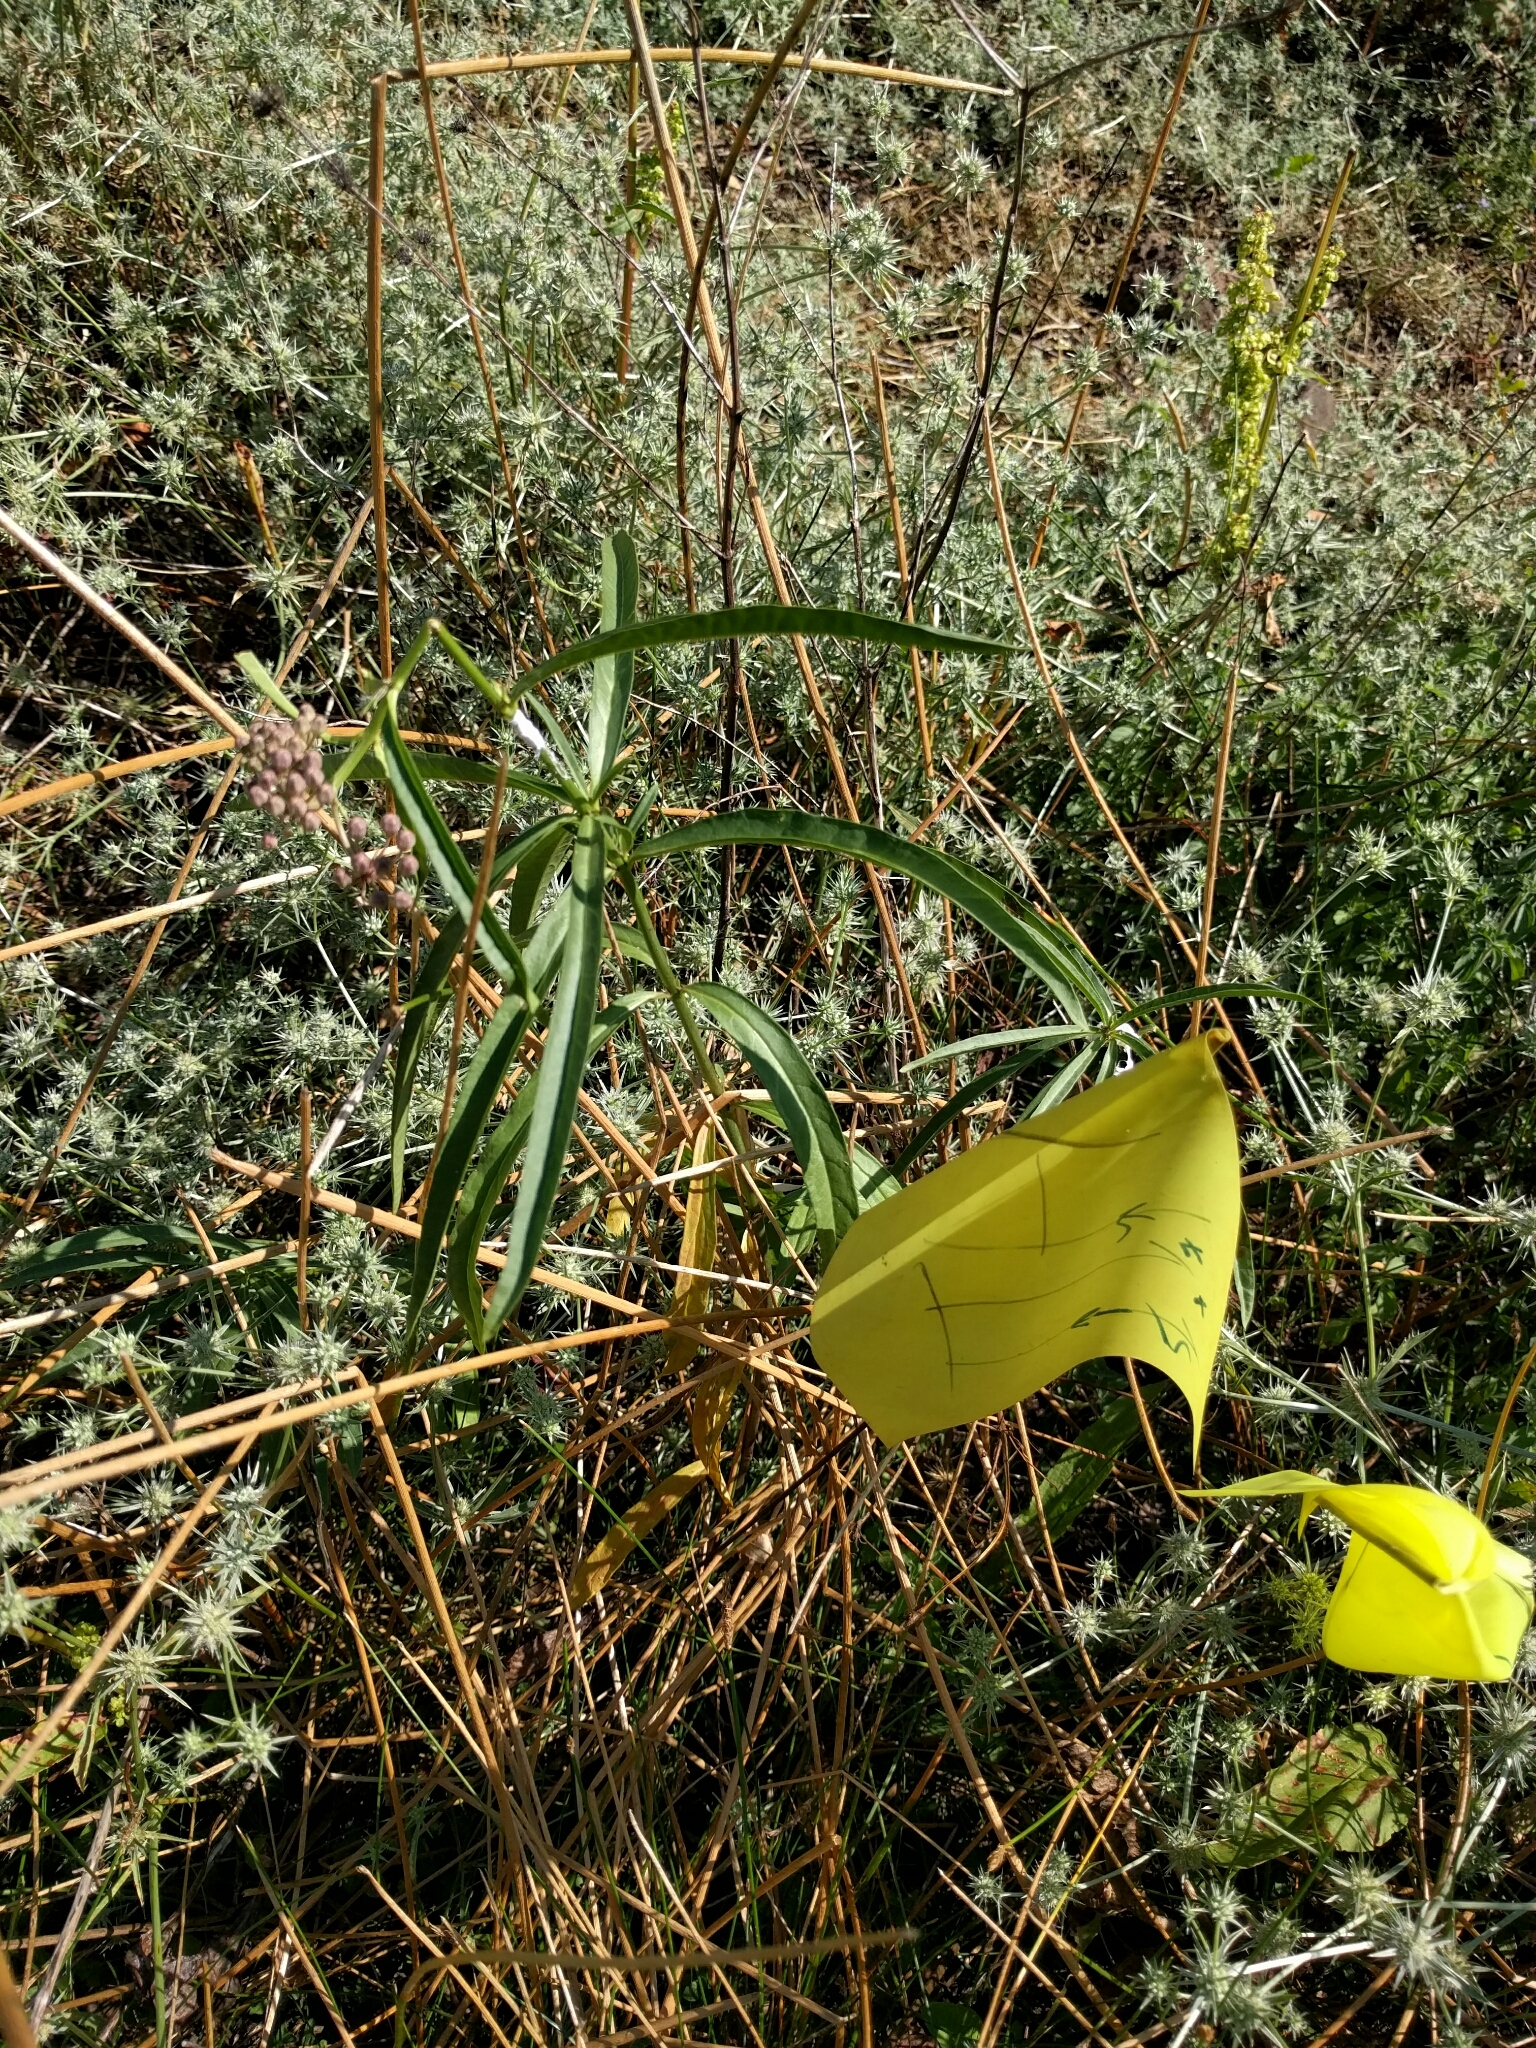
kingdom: Plantae
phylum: Tracheophyta
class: Magnoliopsida
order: Gentianales
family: Apocynaceae
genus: Asclepias
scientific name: Asclepias fascicularis
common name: Mexican milkweed
